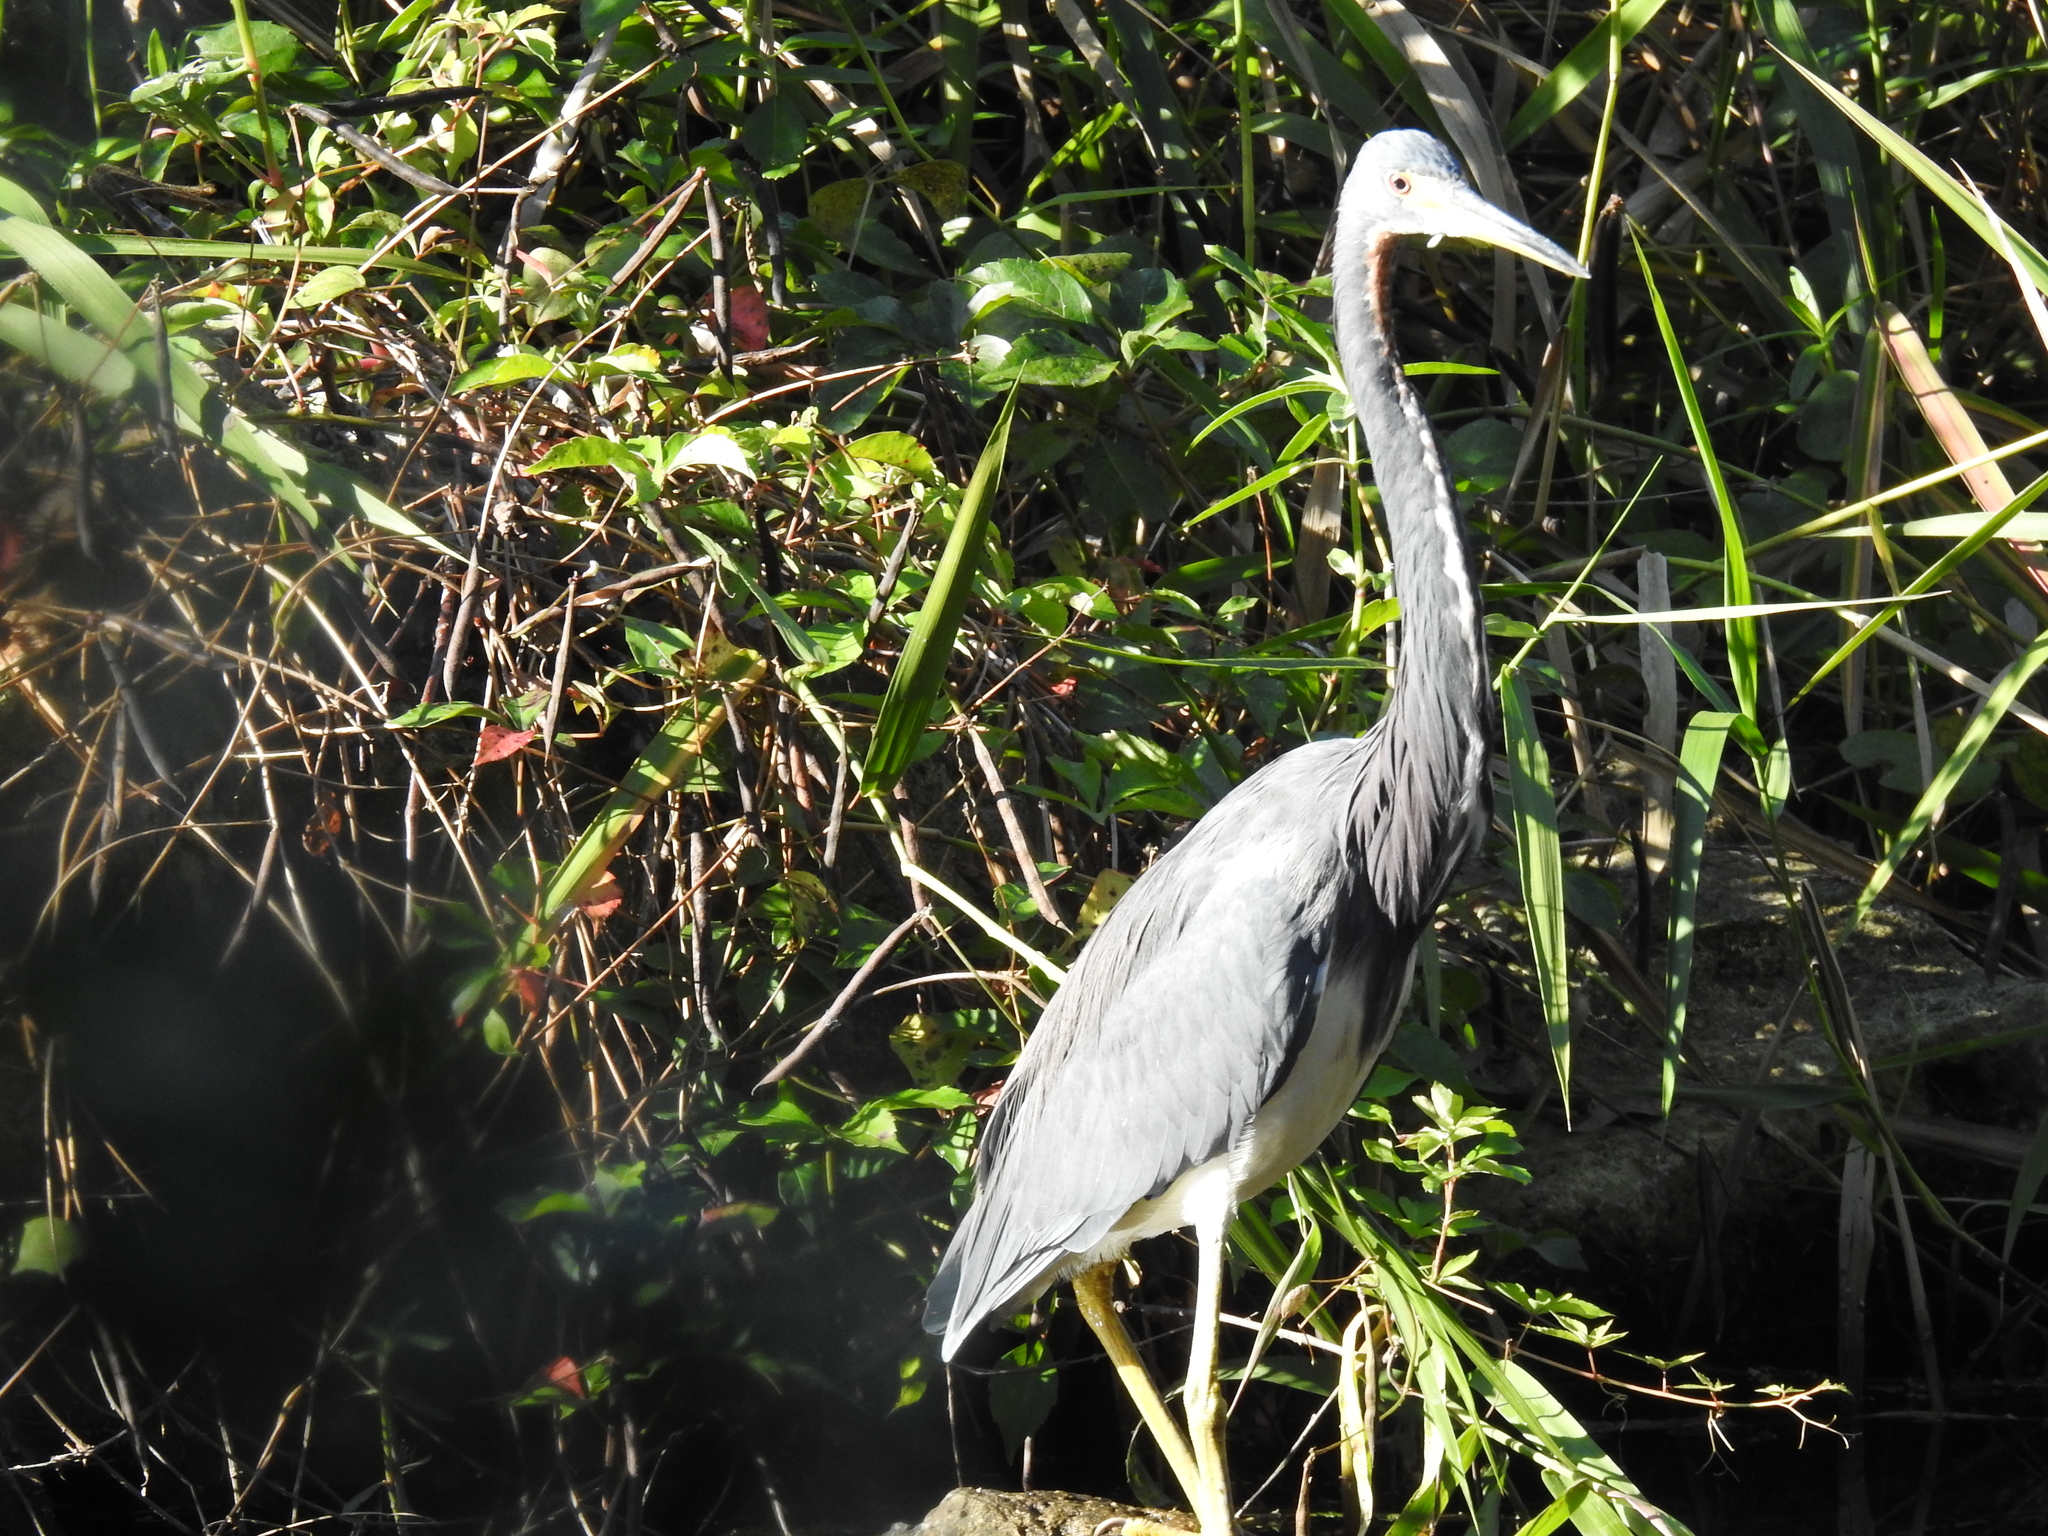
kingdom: Animalia
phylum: Chordata
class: Aves
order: Pelecaniformes
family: Ardeidae
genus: Egretta
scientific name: Egretta tricolor
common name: Tricolored heron
